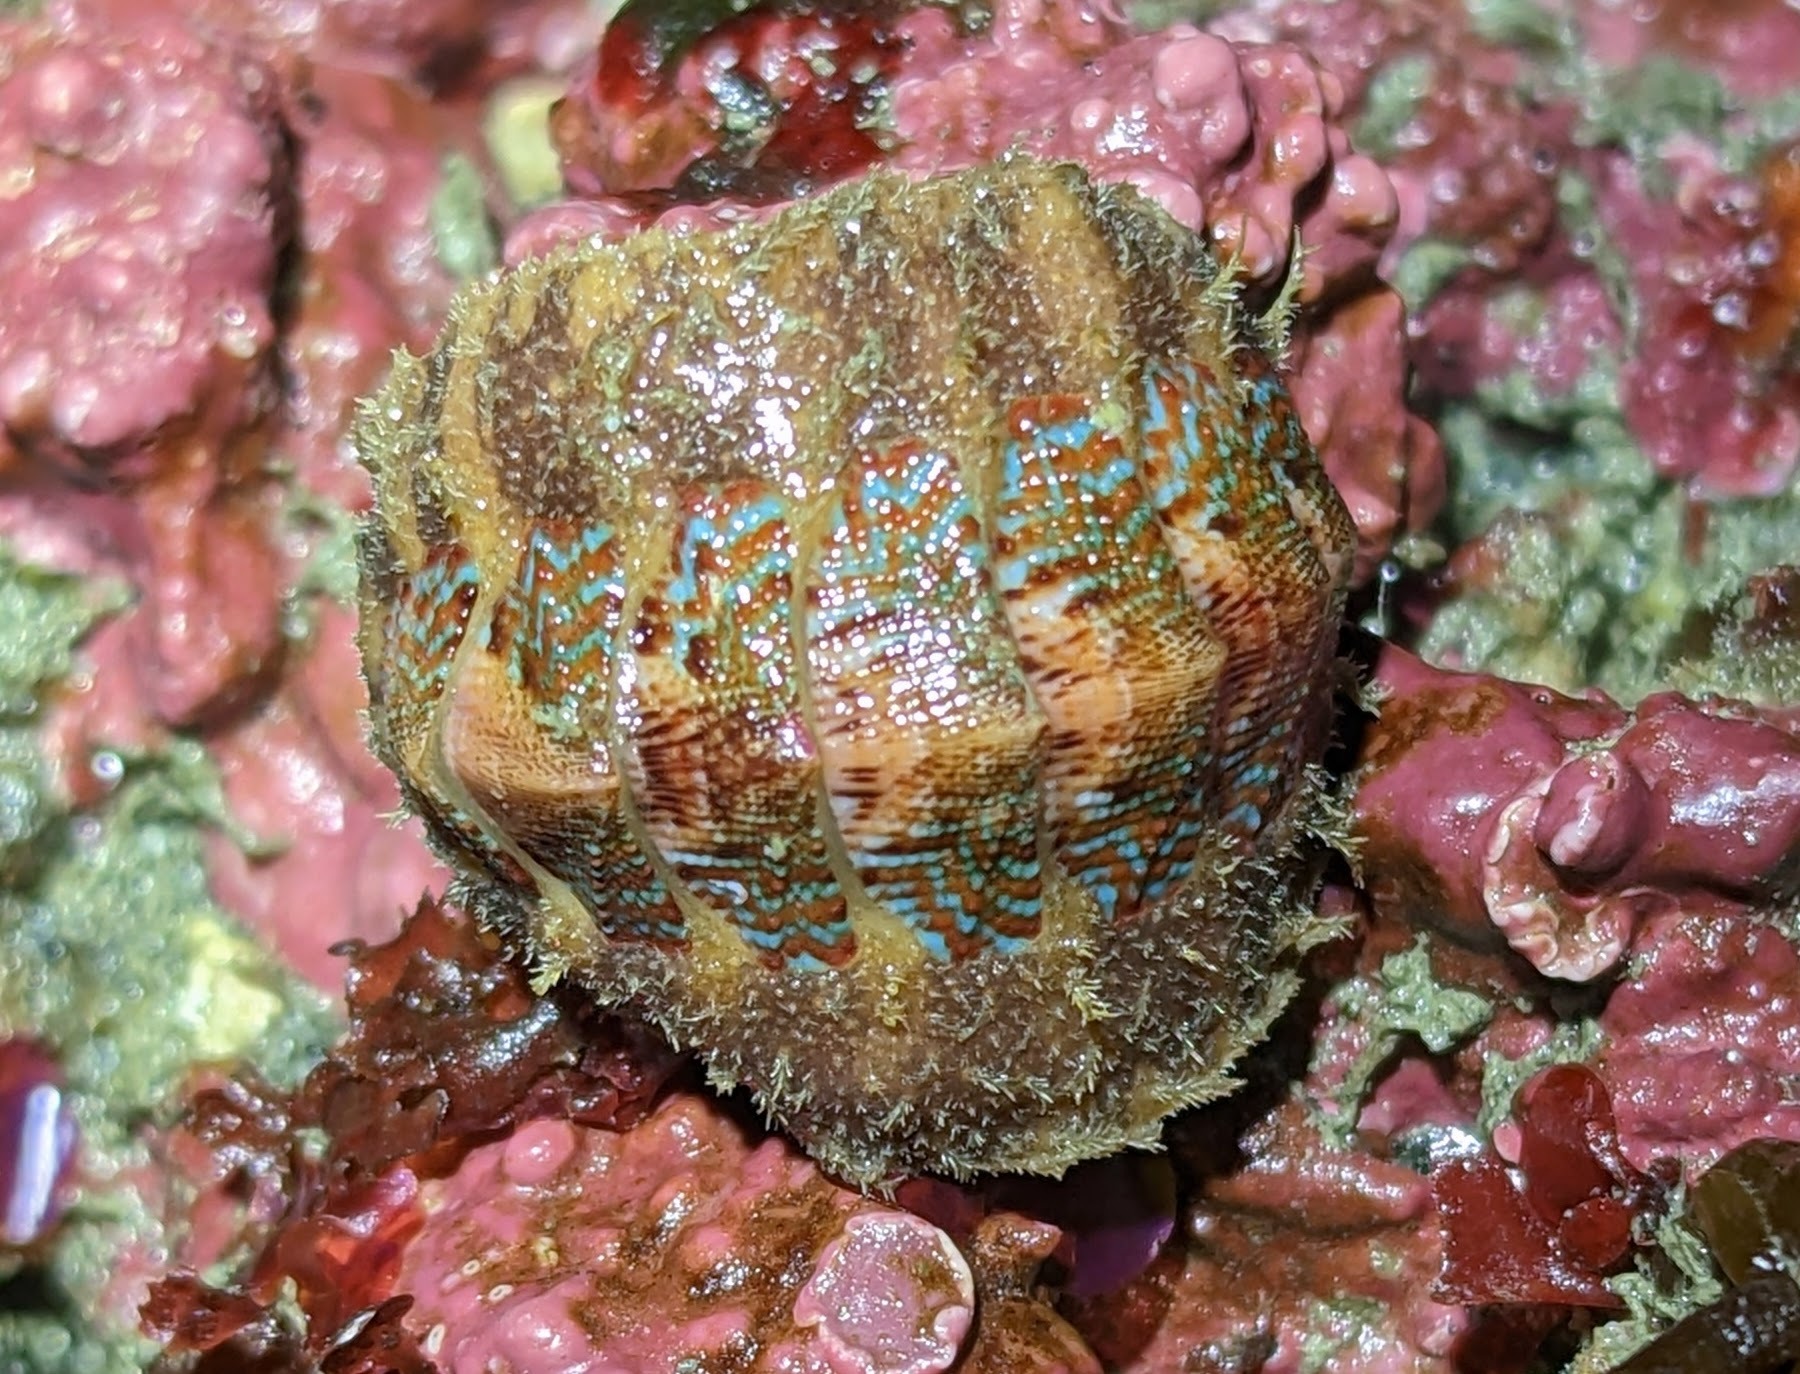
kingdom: Animalia
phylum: Mollusca
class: Polyplacophora
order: Chitonida
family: Mopaliidae
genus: Mopalia
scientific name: Mopalia spectabilis
